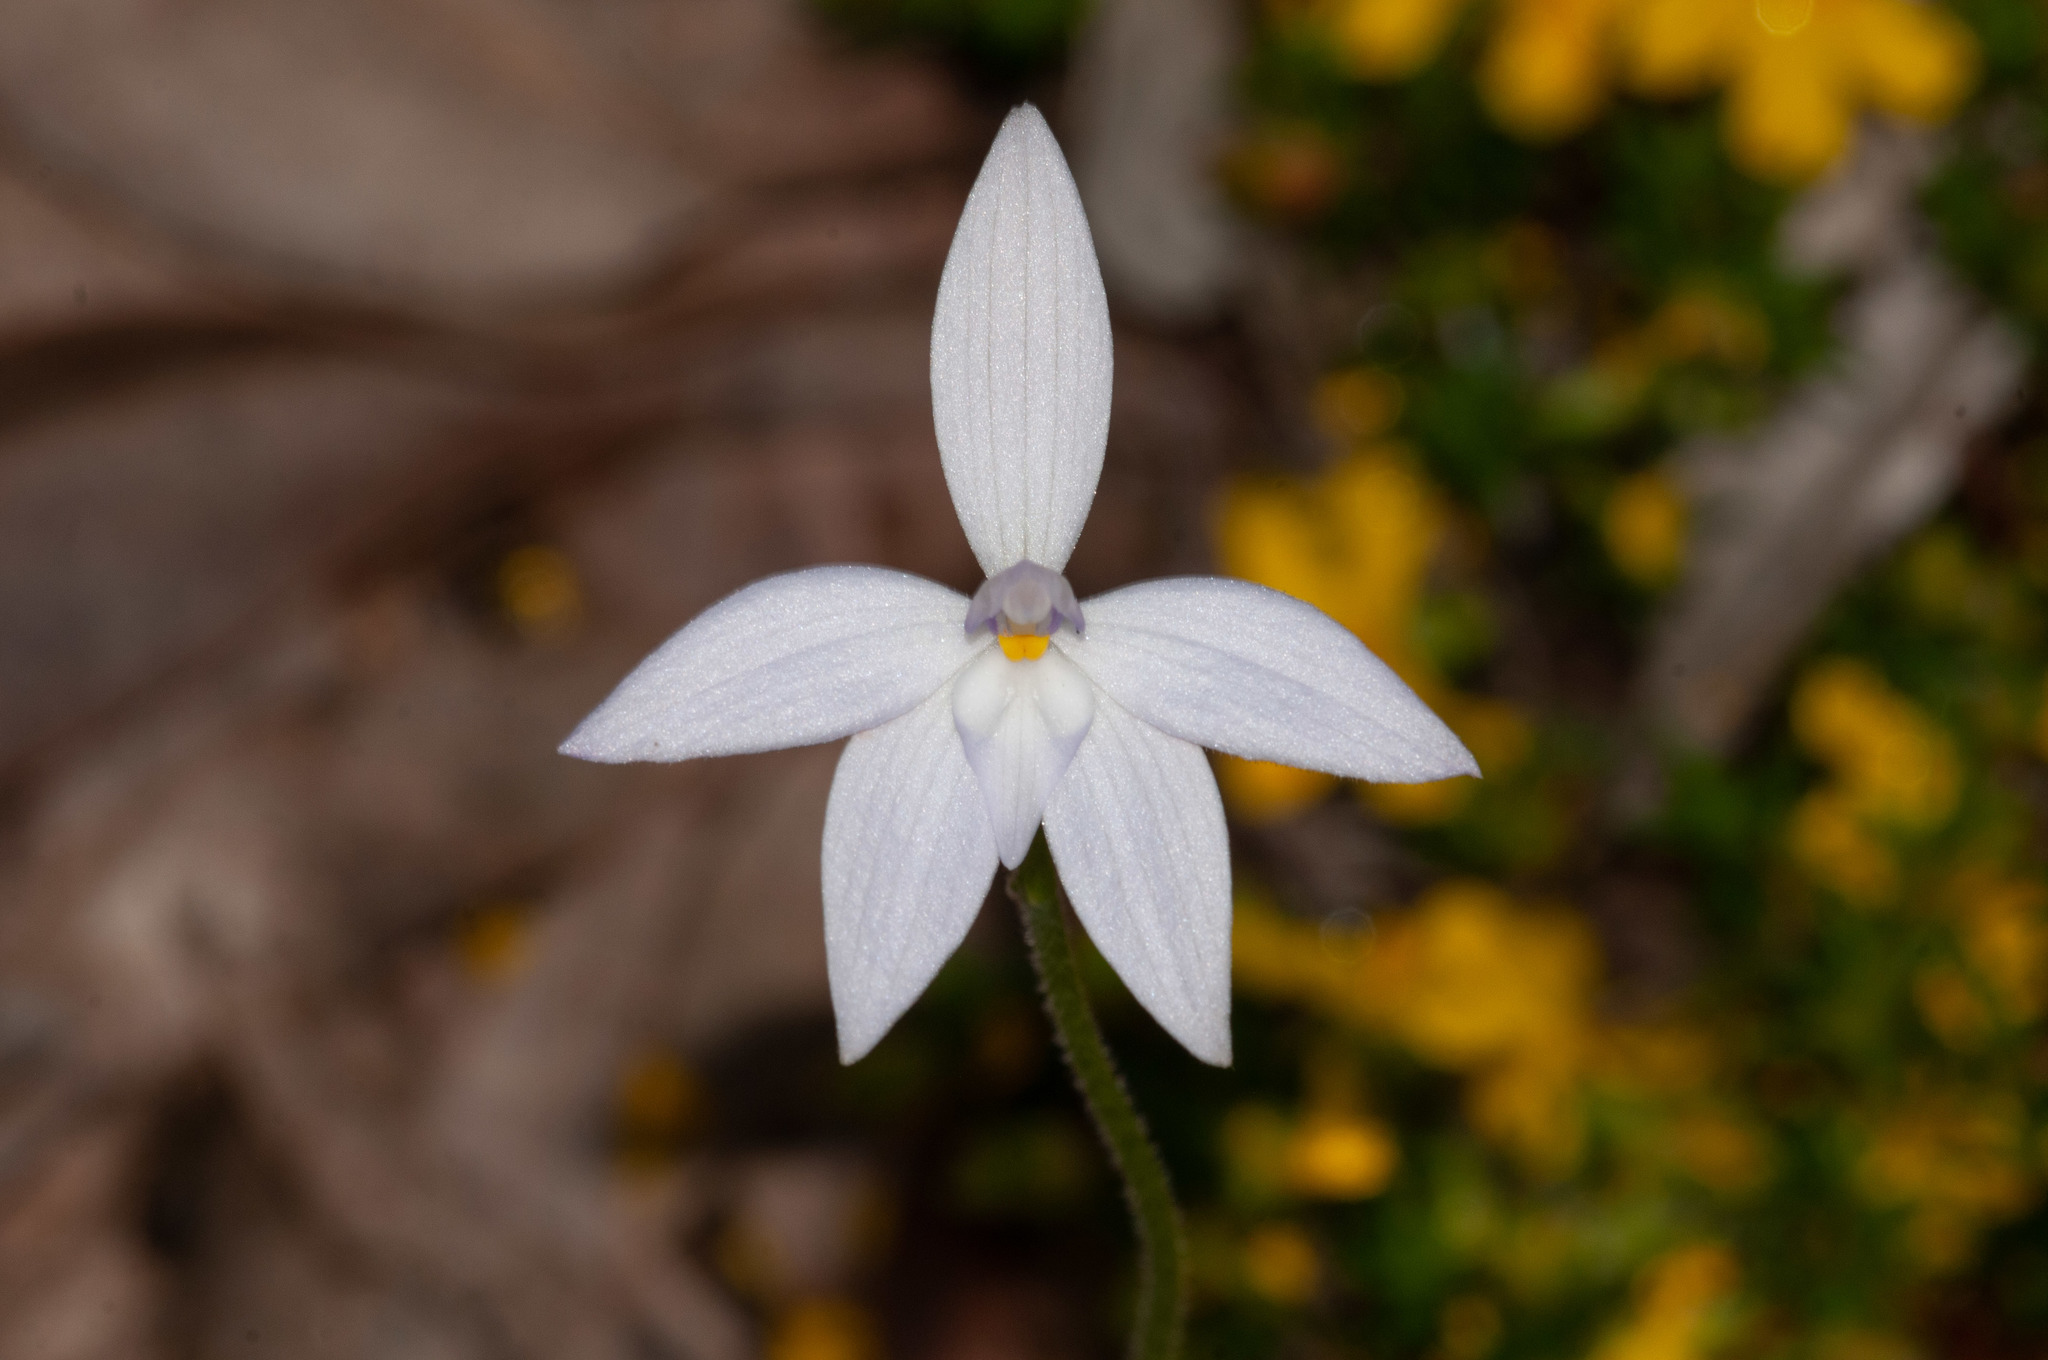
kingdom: Plantae
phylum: Tracheophyta
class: Liliopsida
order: Asparagales
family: Orchidaceae
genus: Caladenia
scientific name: Caladenia major
